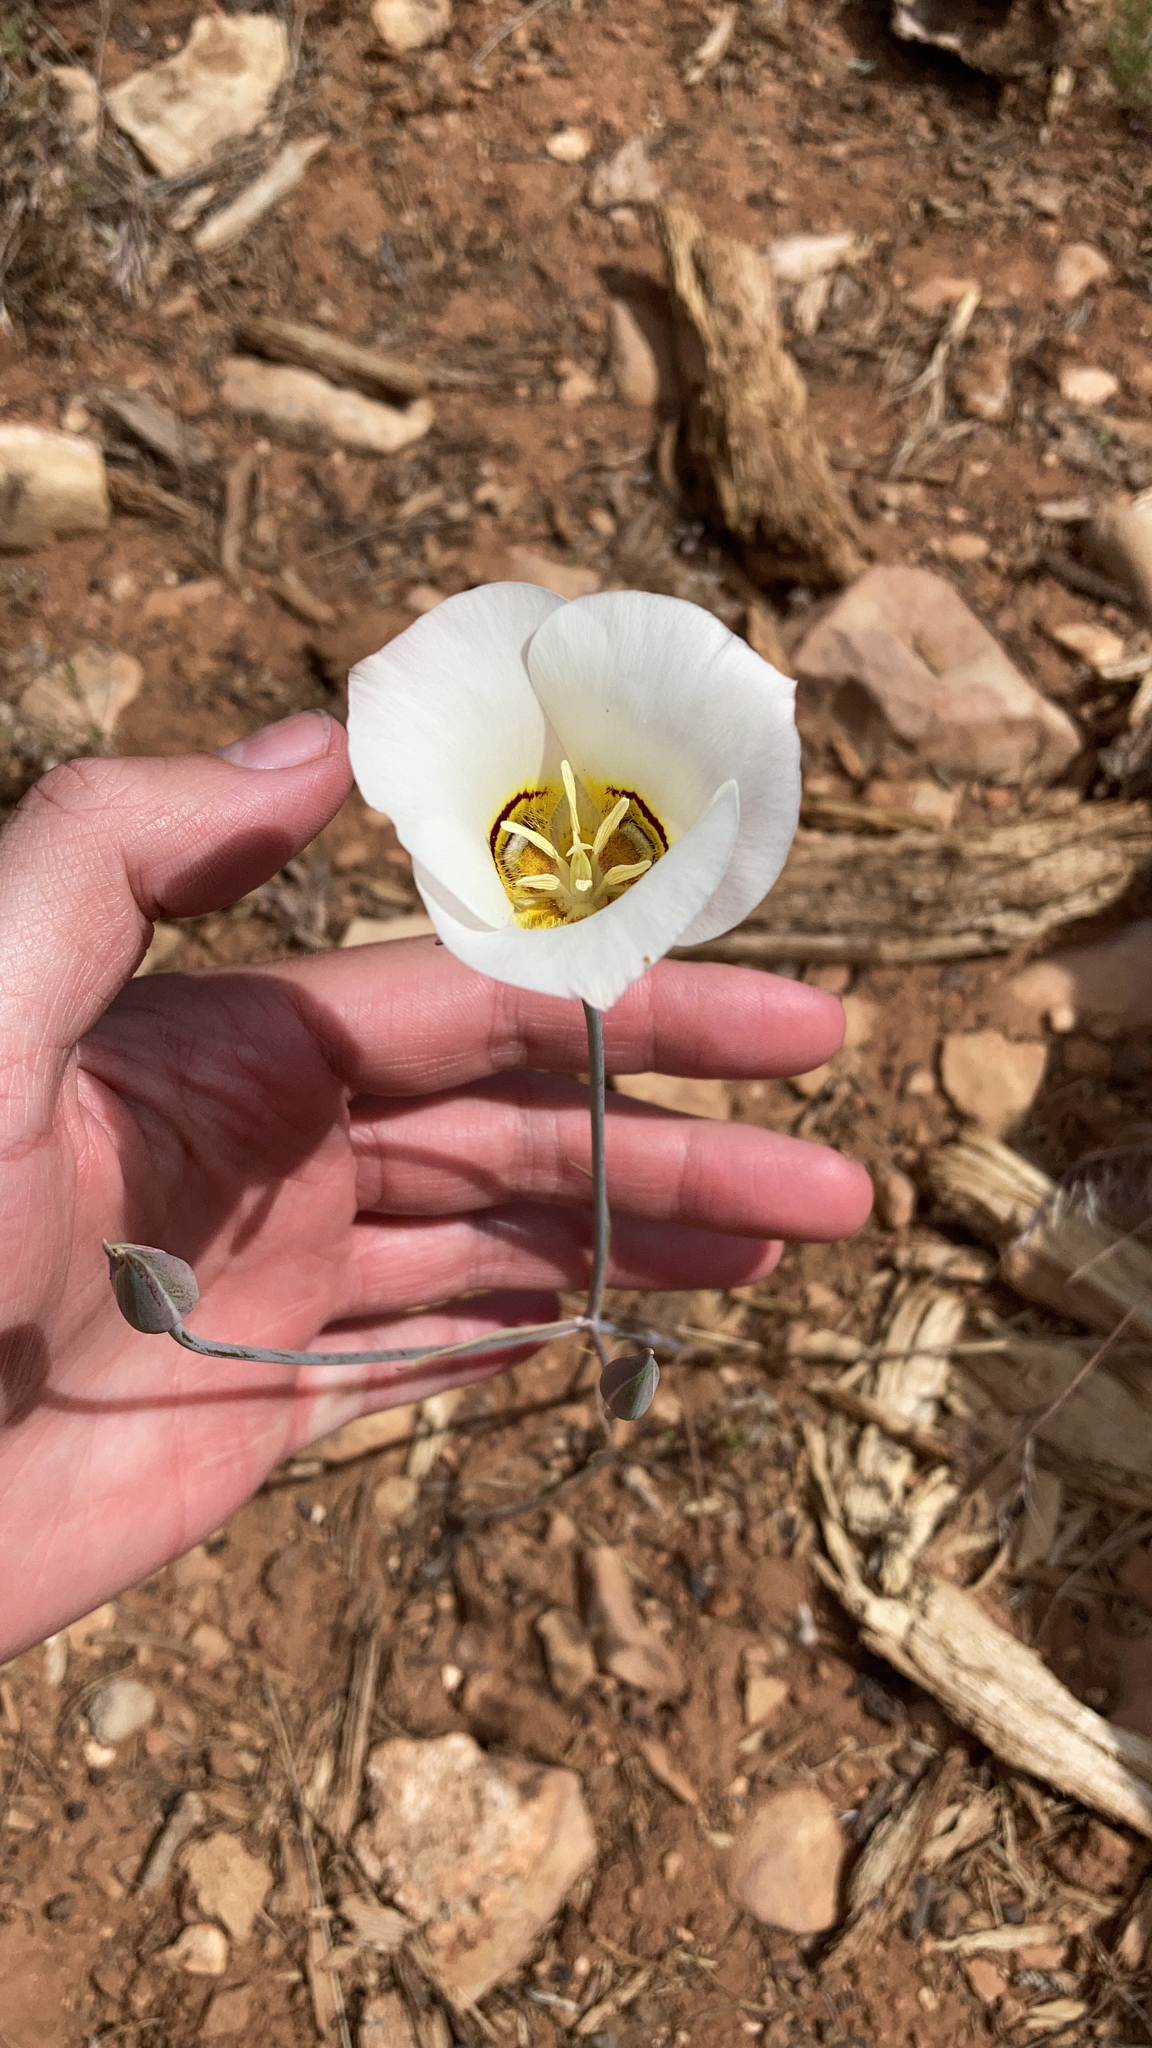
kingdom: Plantae
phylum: Tracheophyta
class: Liliopsida
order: Liliales
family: Liliaceae
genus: Calochortus
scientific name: Calochortus nuttallii
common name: Sego-lily
